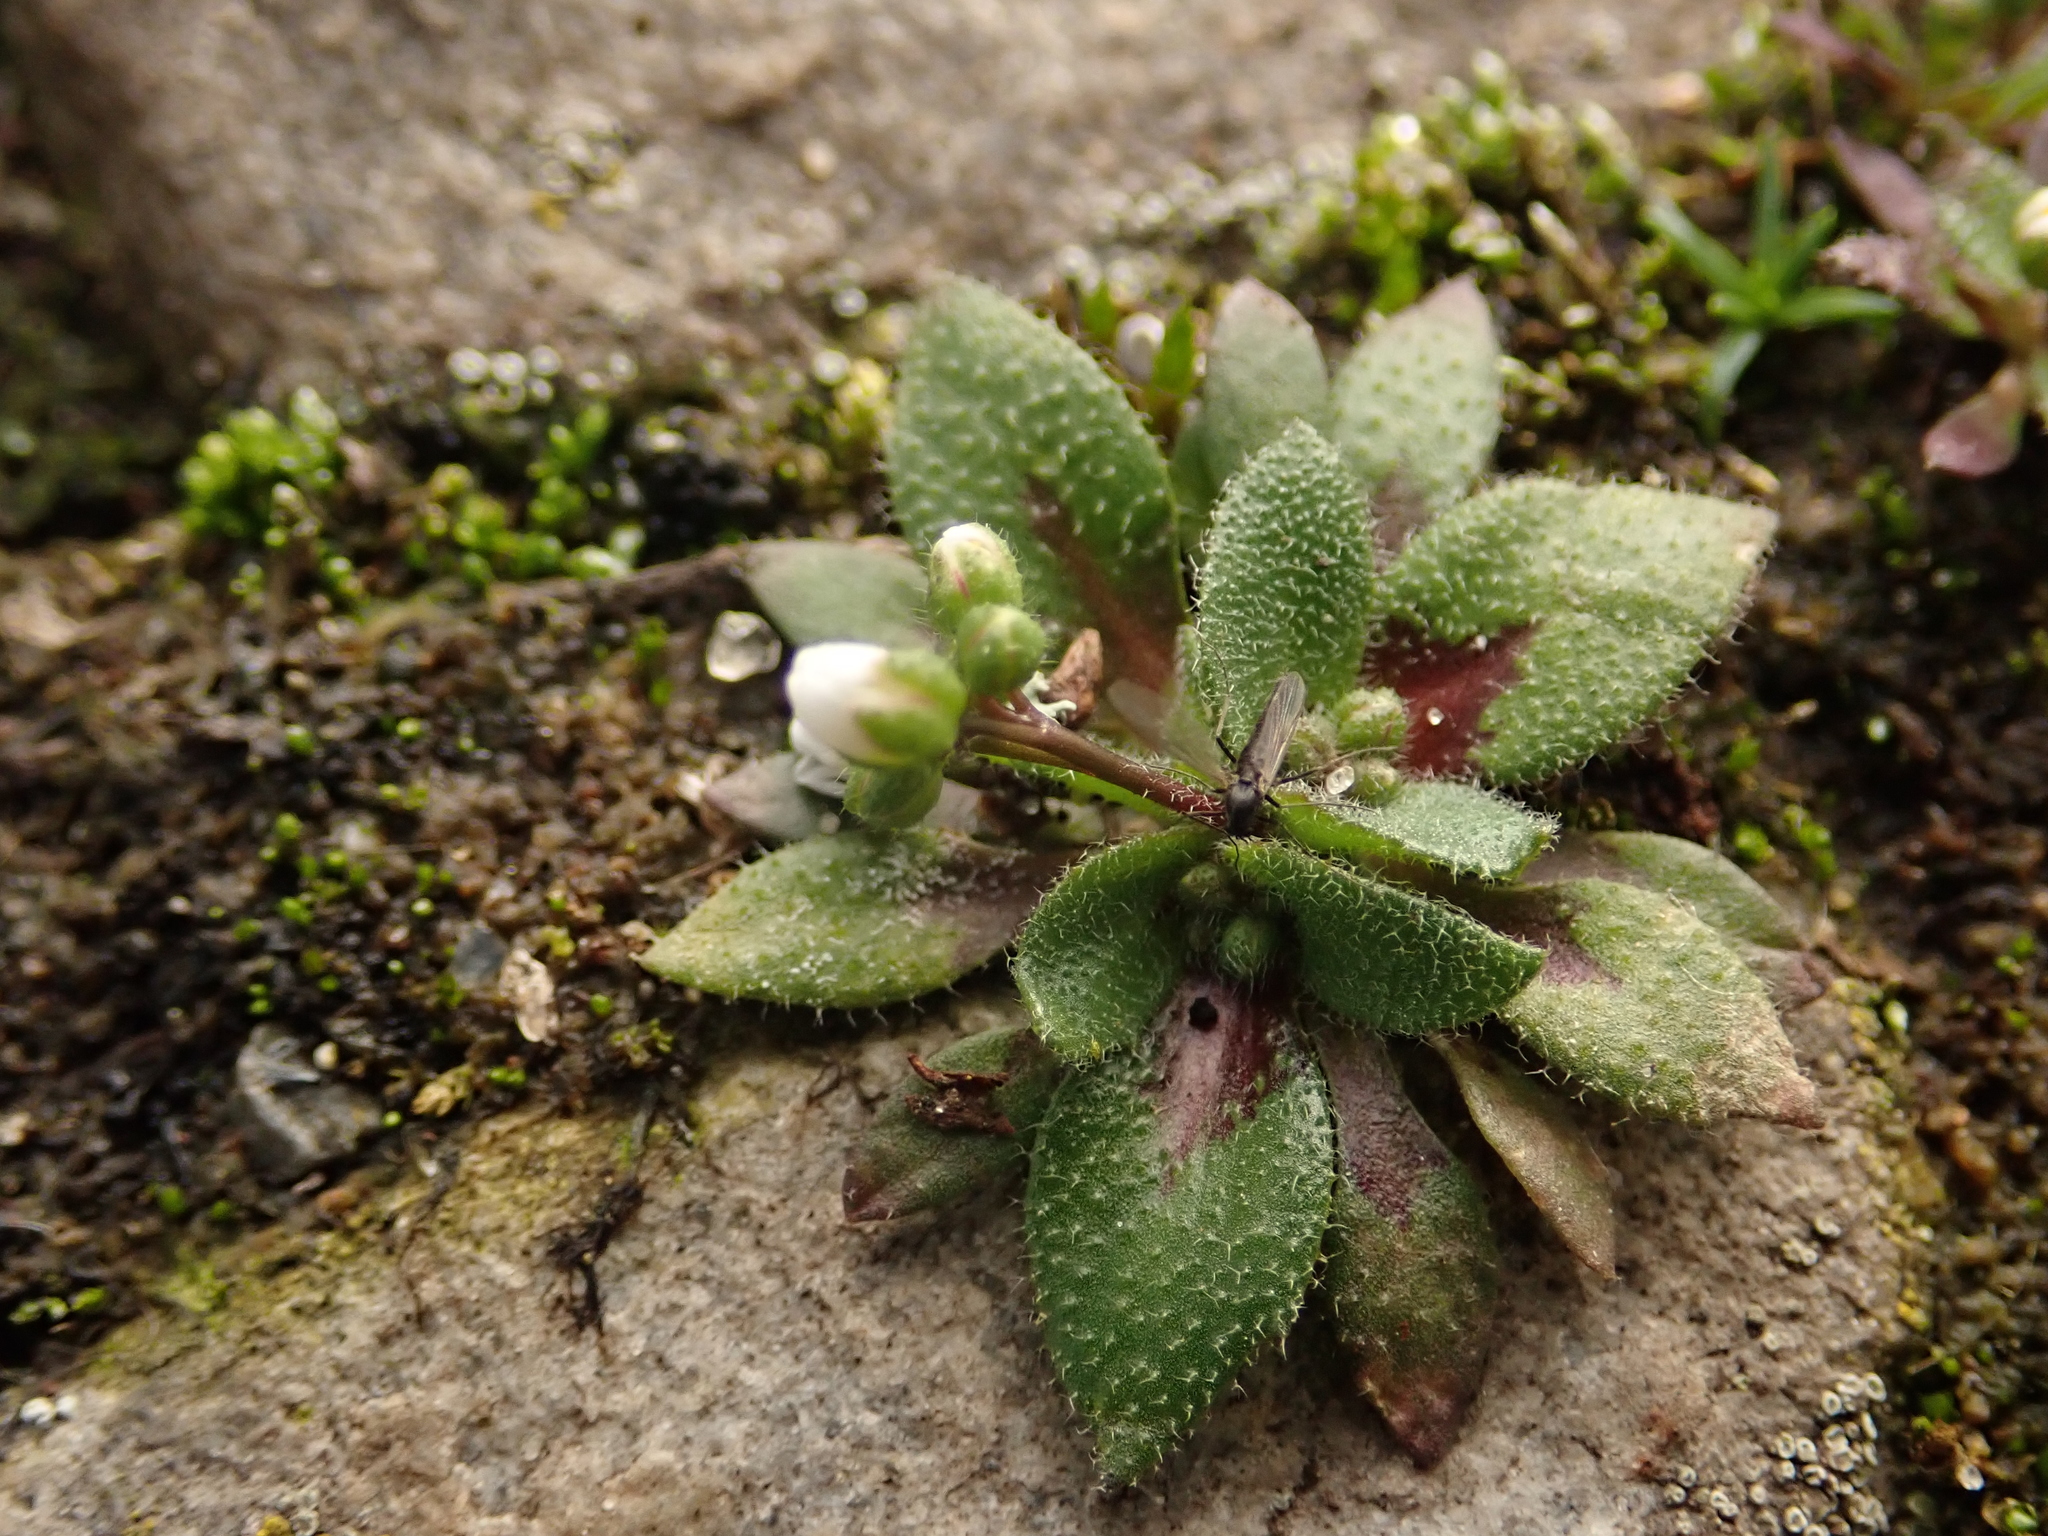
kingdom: Plantae
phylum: Tracheophyta
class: Magnoliopsida
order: Brassicales
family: Brassicaceae
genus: Draba
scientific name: Draba verna
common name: Spring draba
